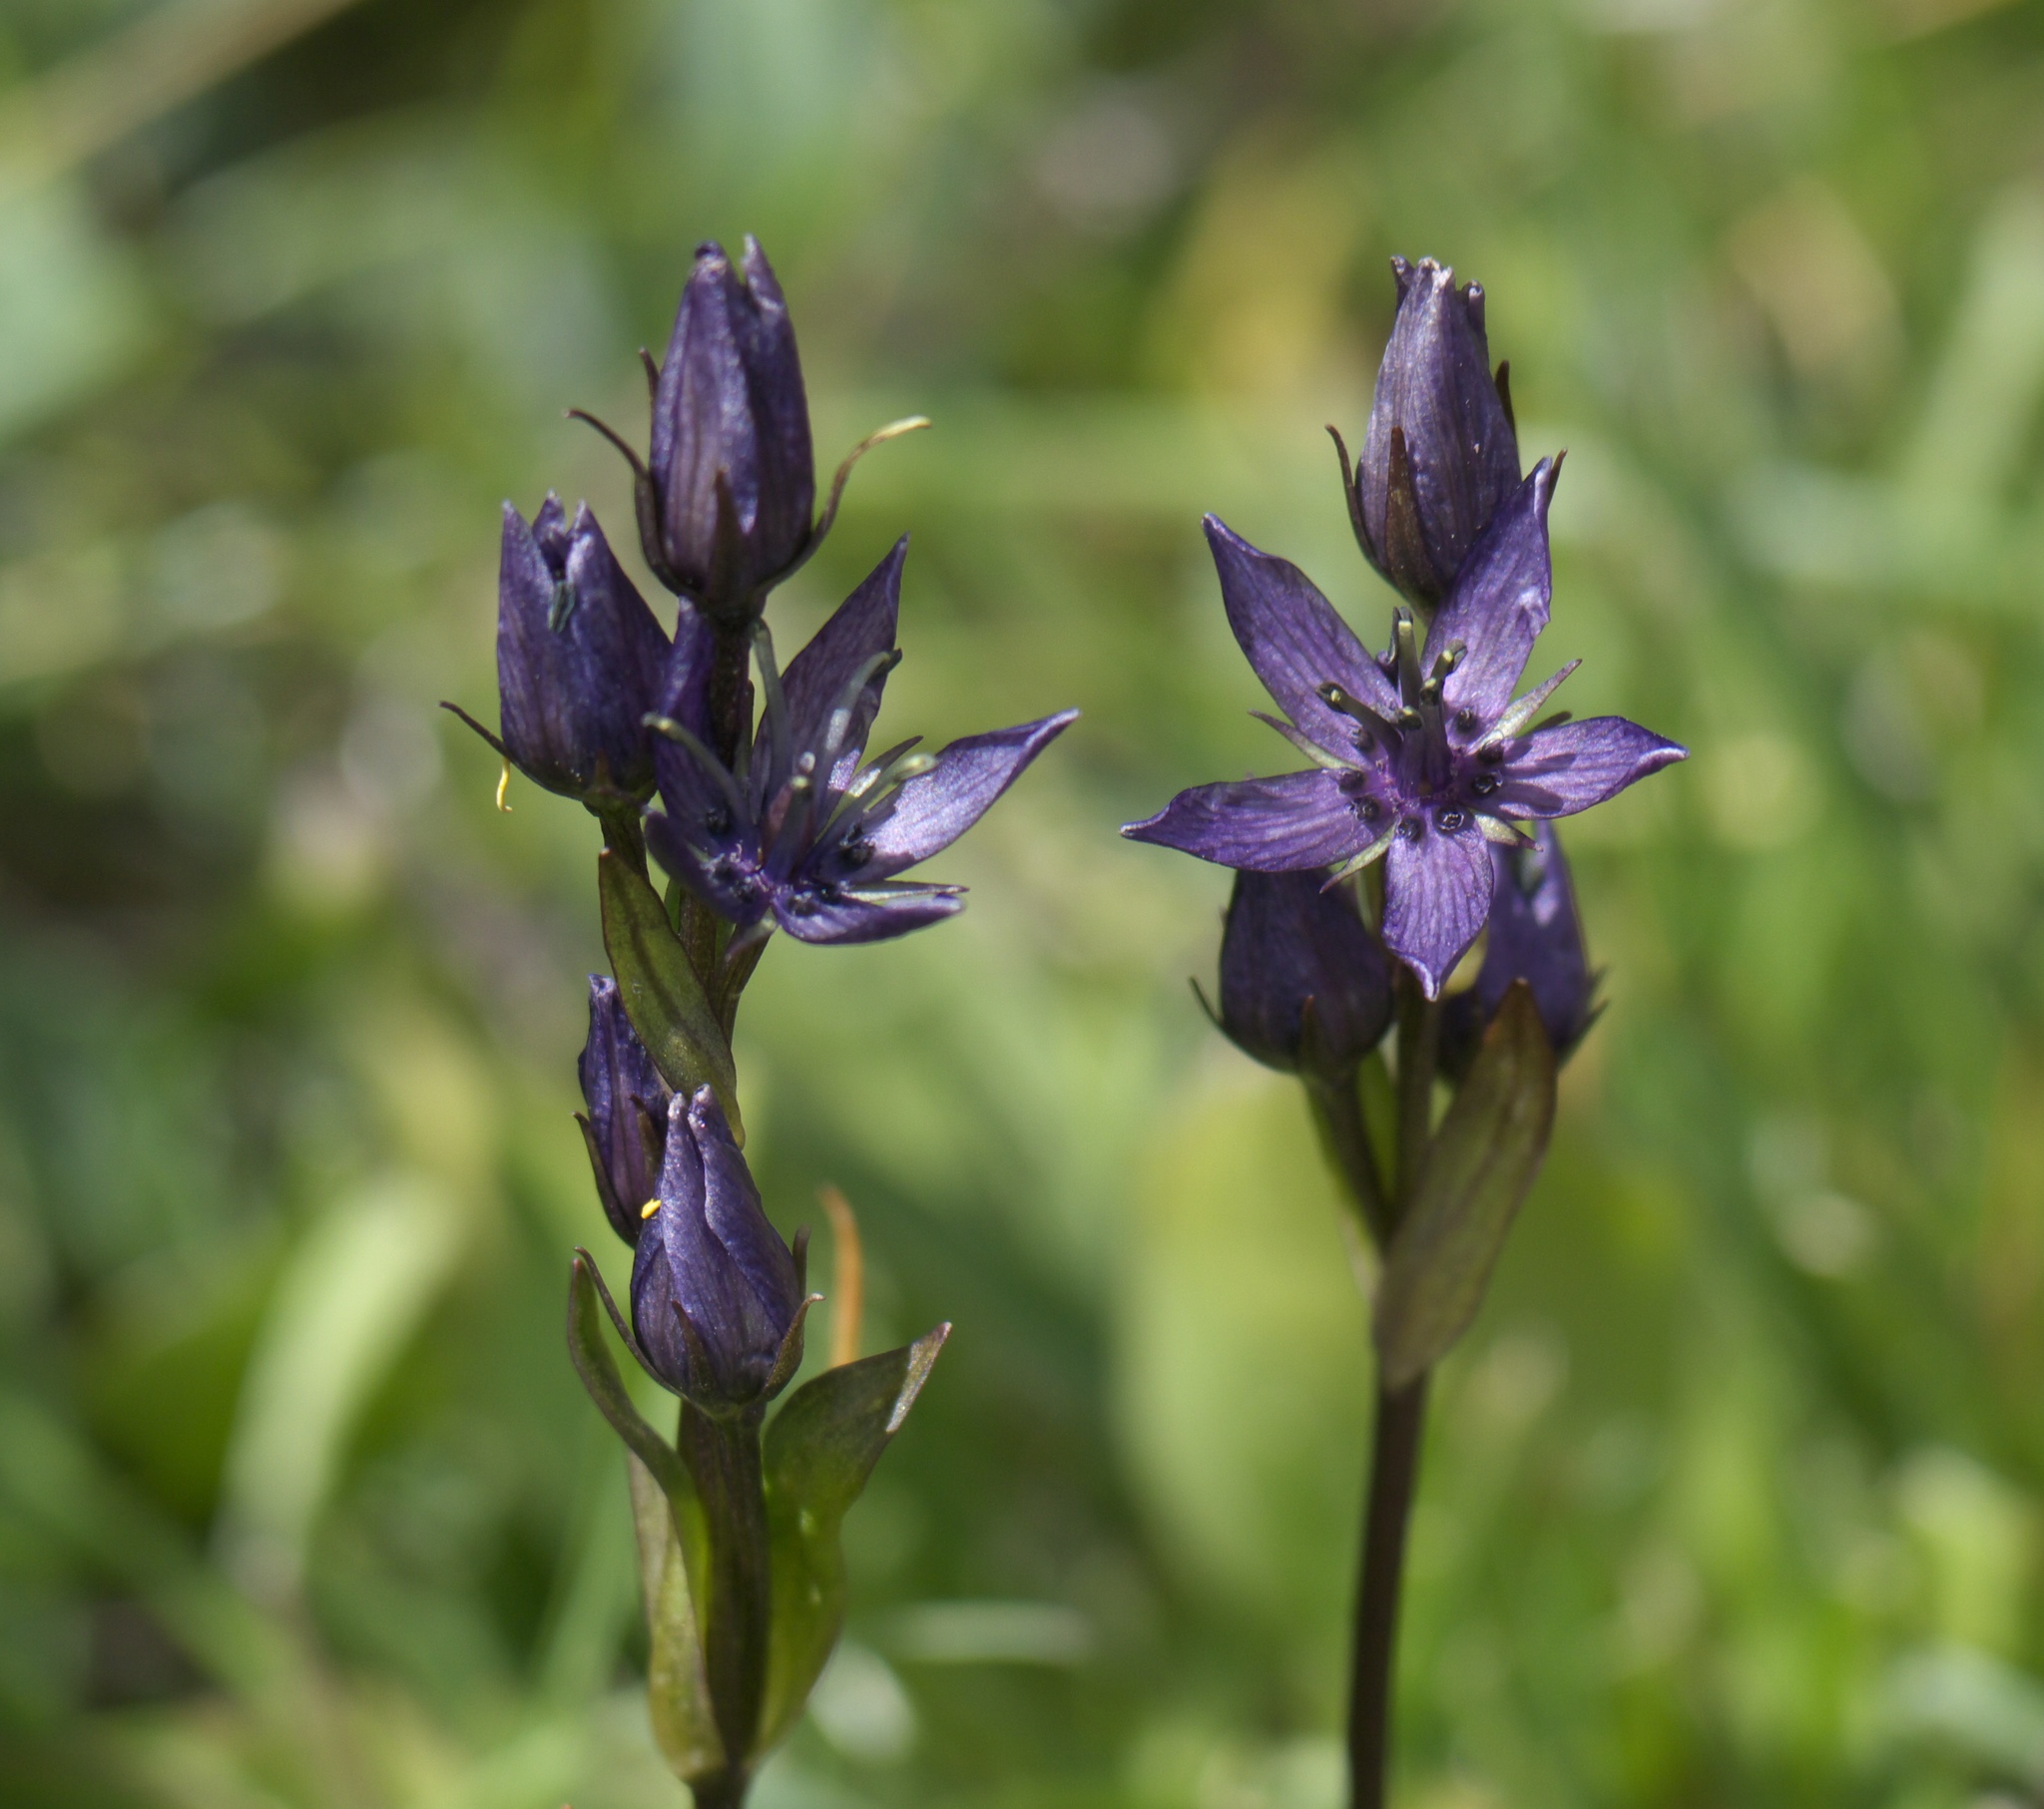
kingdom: Plantae
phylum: Tracheophyta
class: Magnoliopsida
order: Gentianales
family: Gentianaceae
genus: Swertia
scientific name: Swertia perennis
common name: Alpine bog swertia
